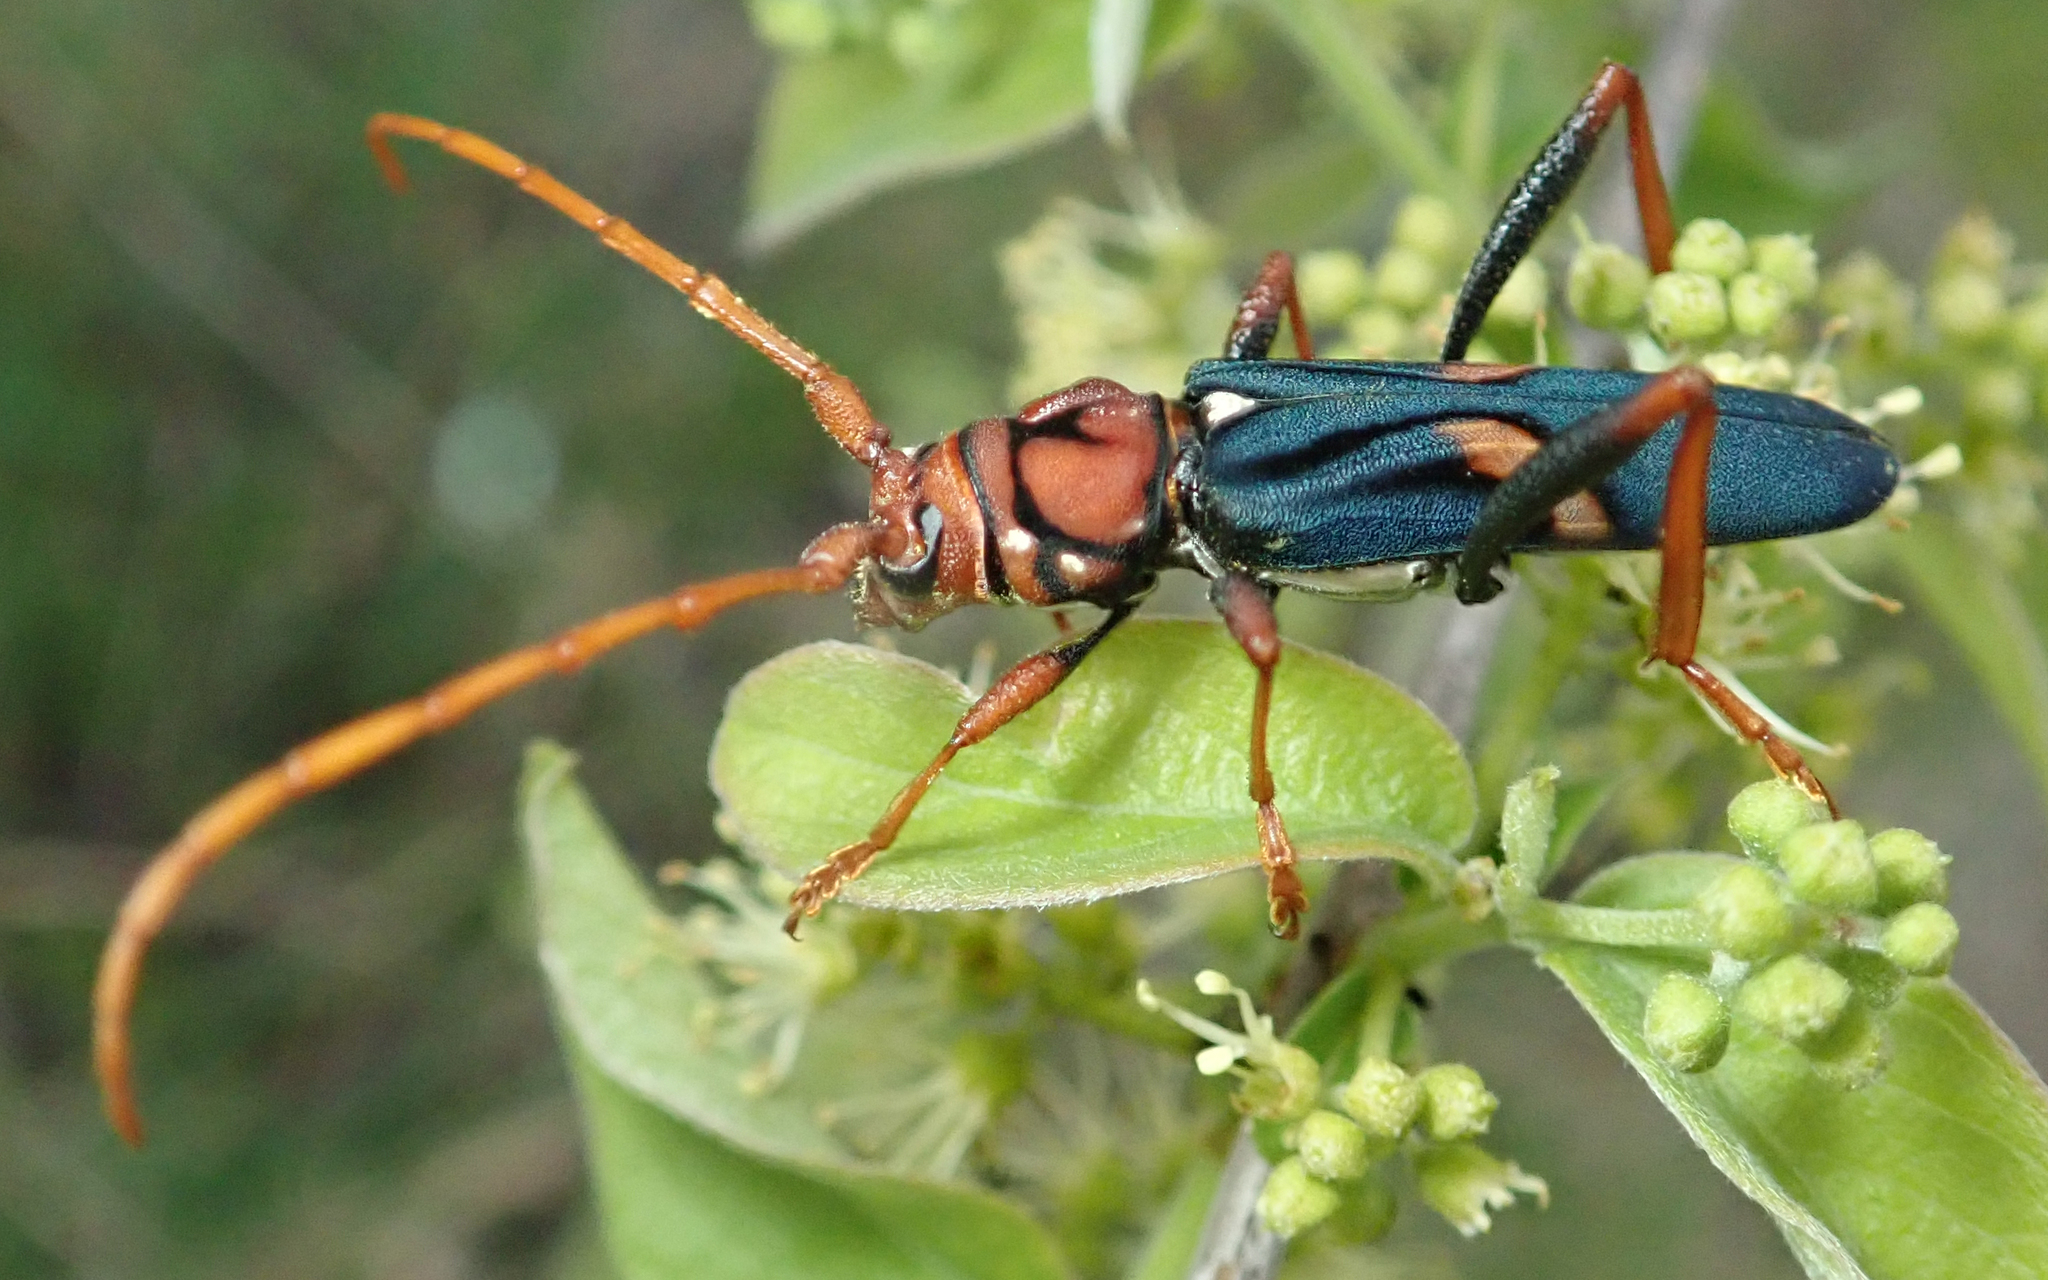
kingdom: Animalia
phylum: Arthropoda
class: Insecta
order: Coleoptera
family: Cerambycidae
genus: Compsomera
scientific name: Compsomera elegantissima
